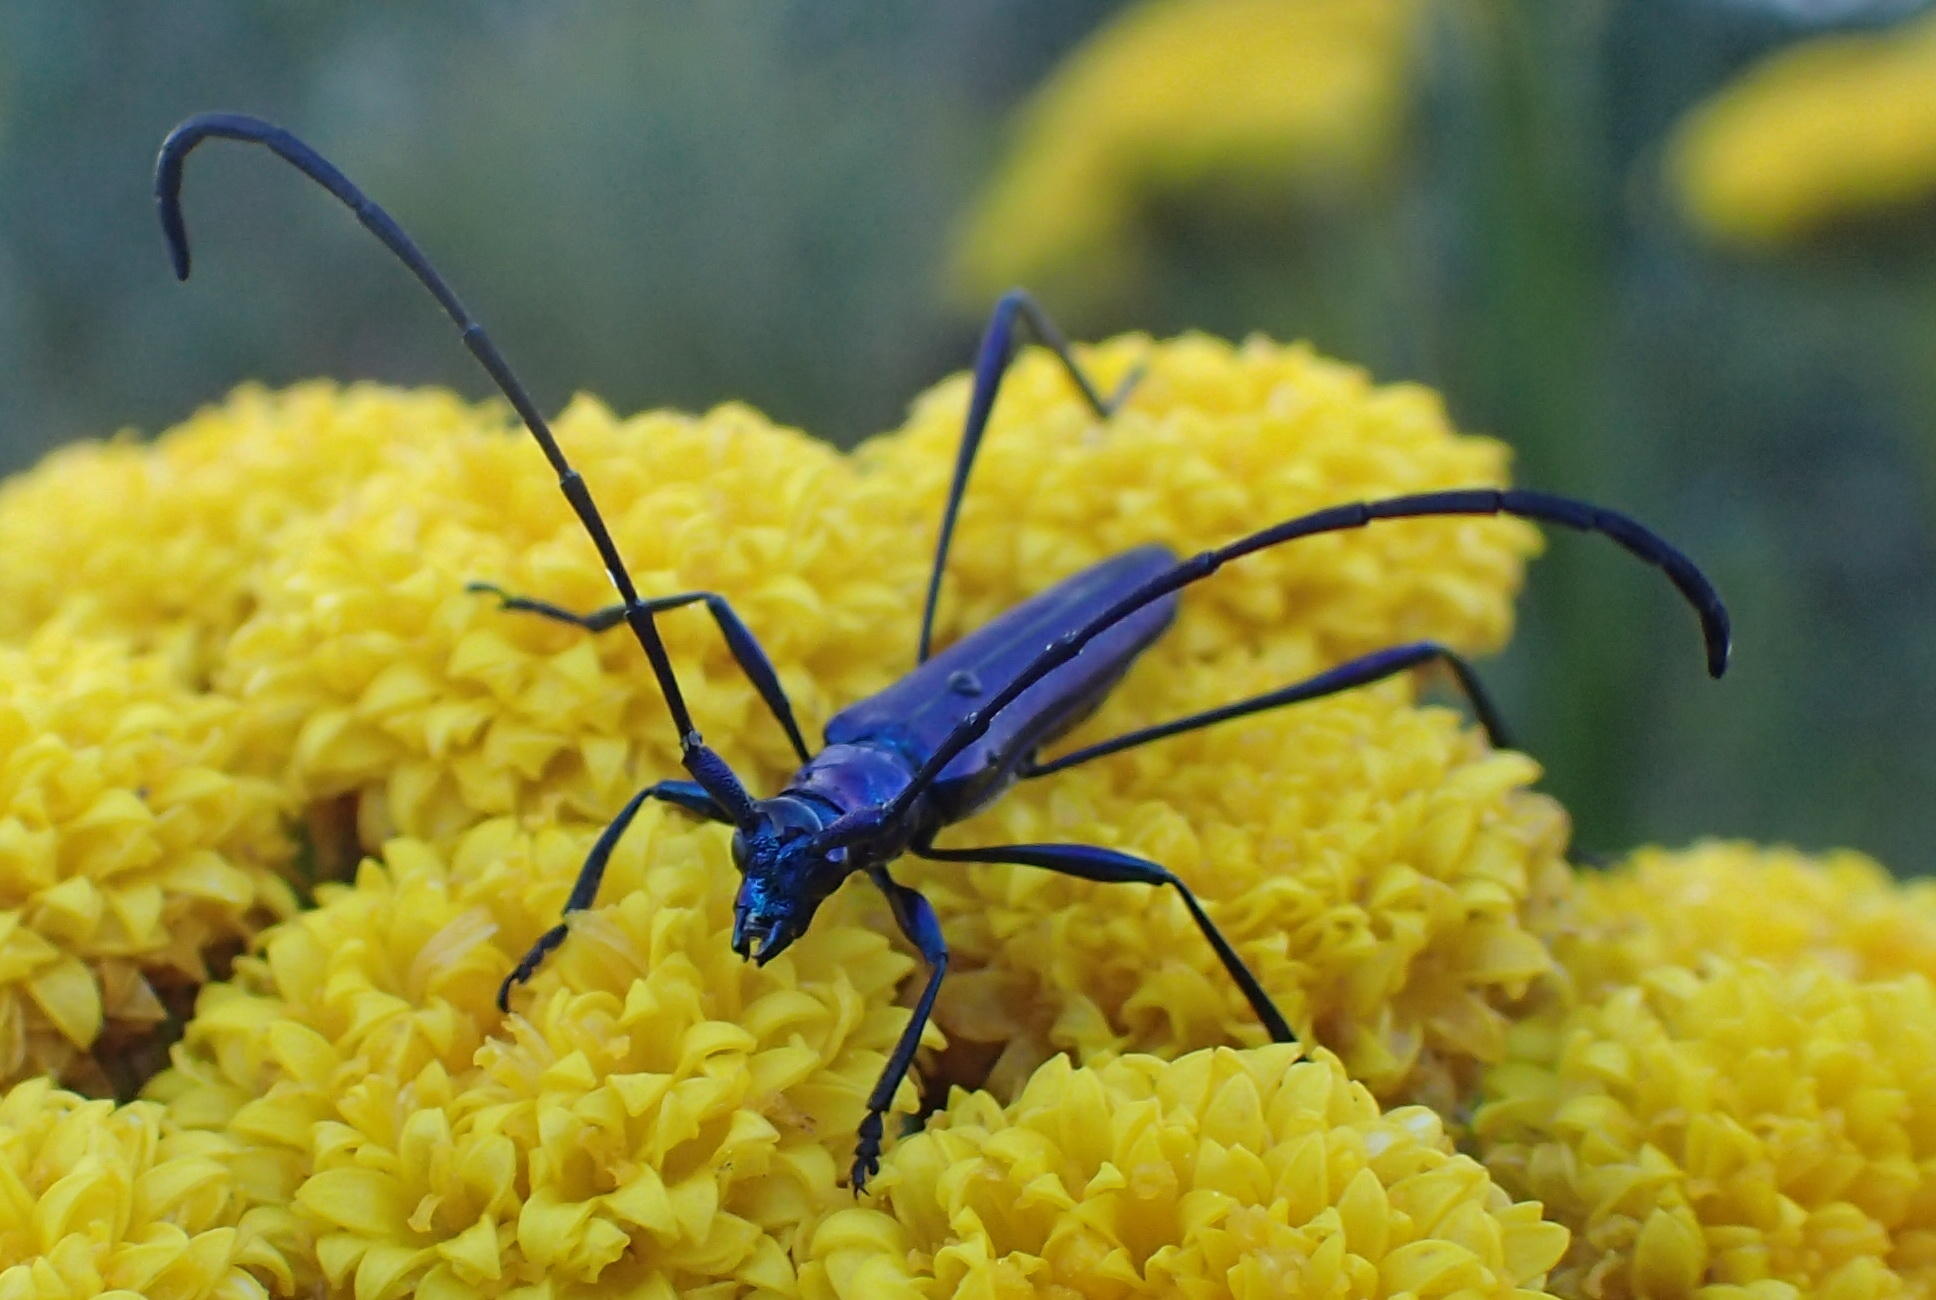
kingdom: Animalia
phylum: Arthropoda
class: Insecta
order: Coleoptera
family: Cerambycidae
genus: Promeces
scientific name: Promeces longipes
